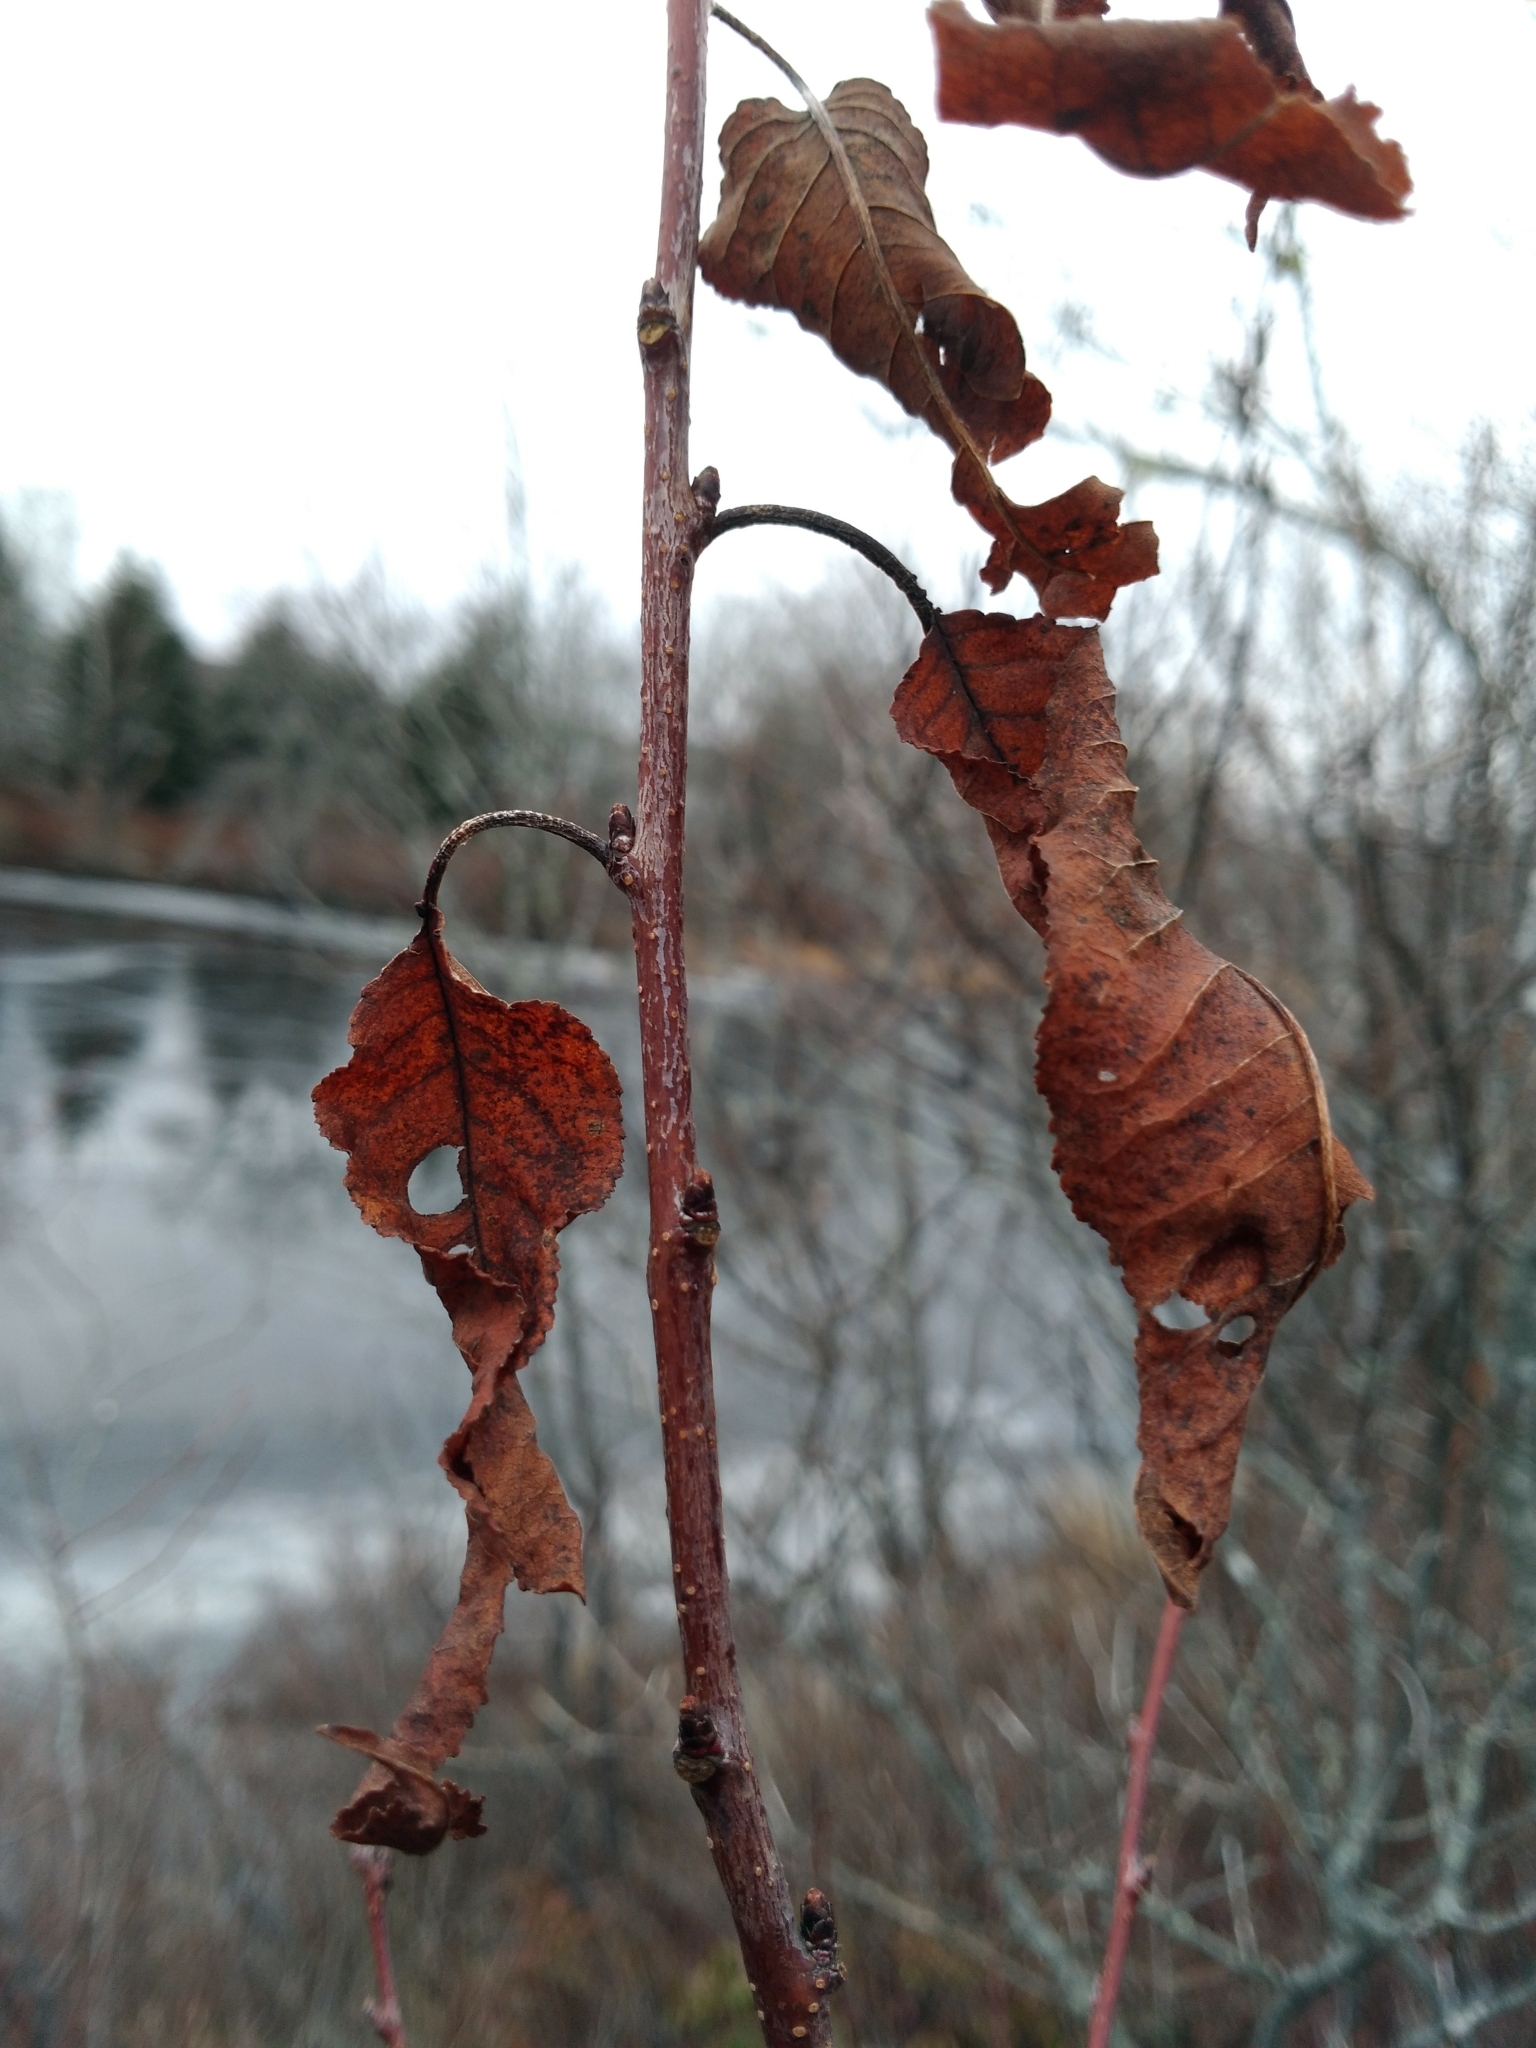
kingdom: Plantae
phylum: Tracheophyta
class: Magnoliopsida
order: Rosales
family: Rosaceae
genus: Prunus
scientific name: Prunus pensylvanica
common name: Pin cherry
